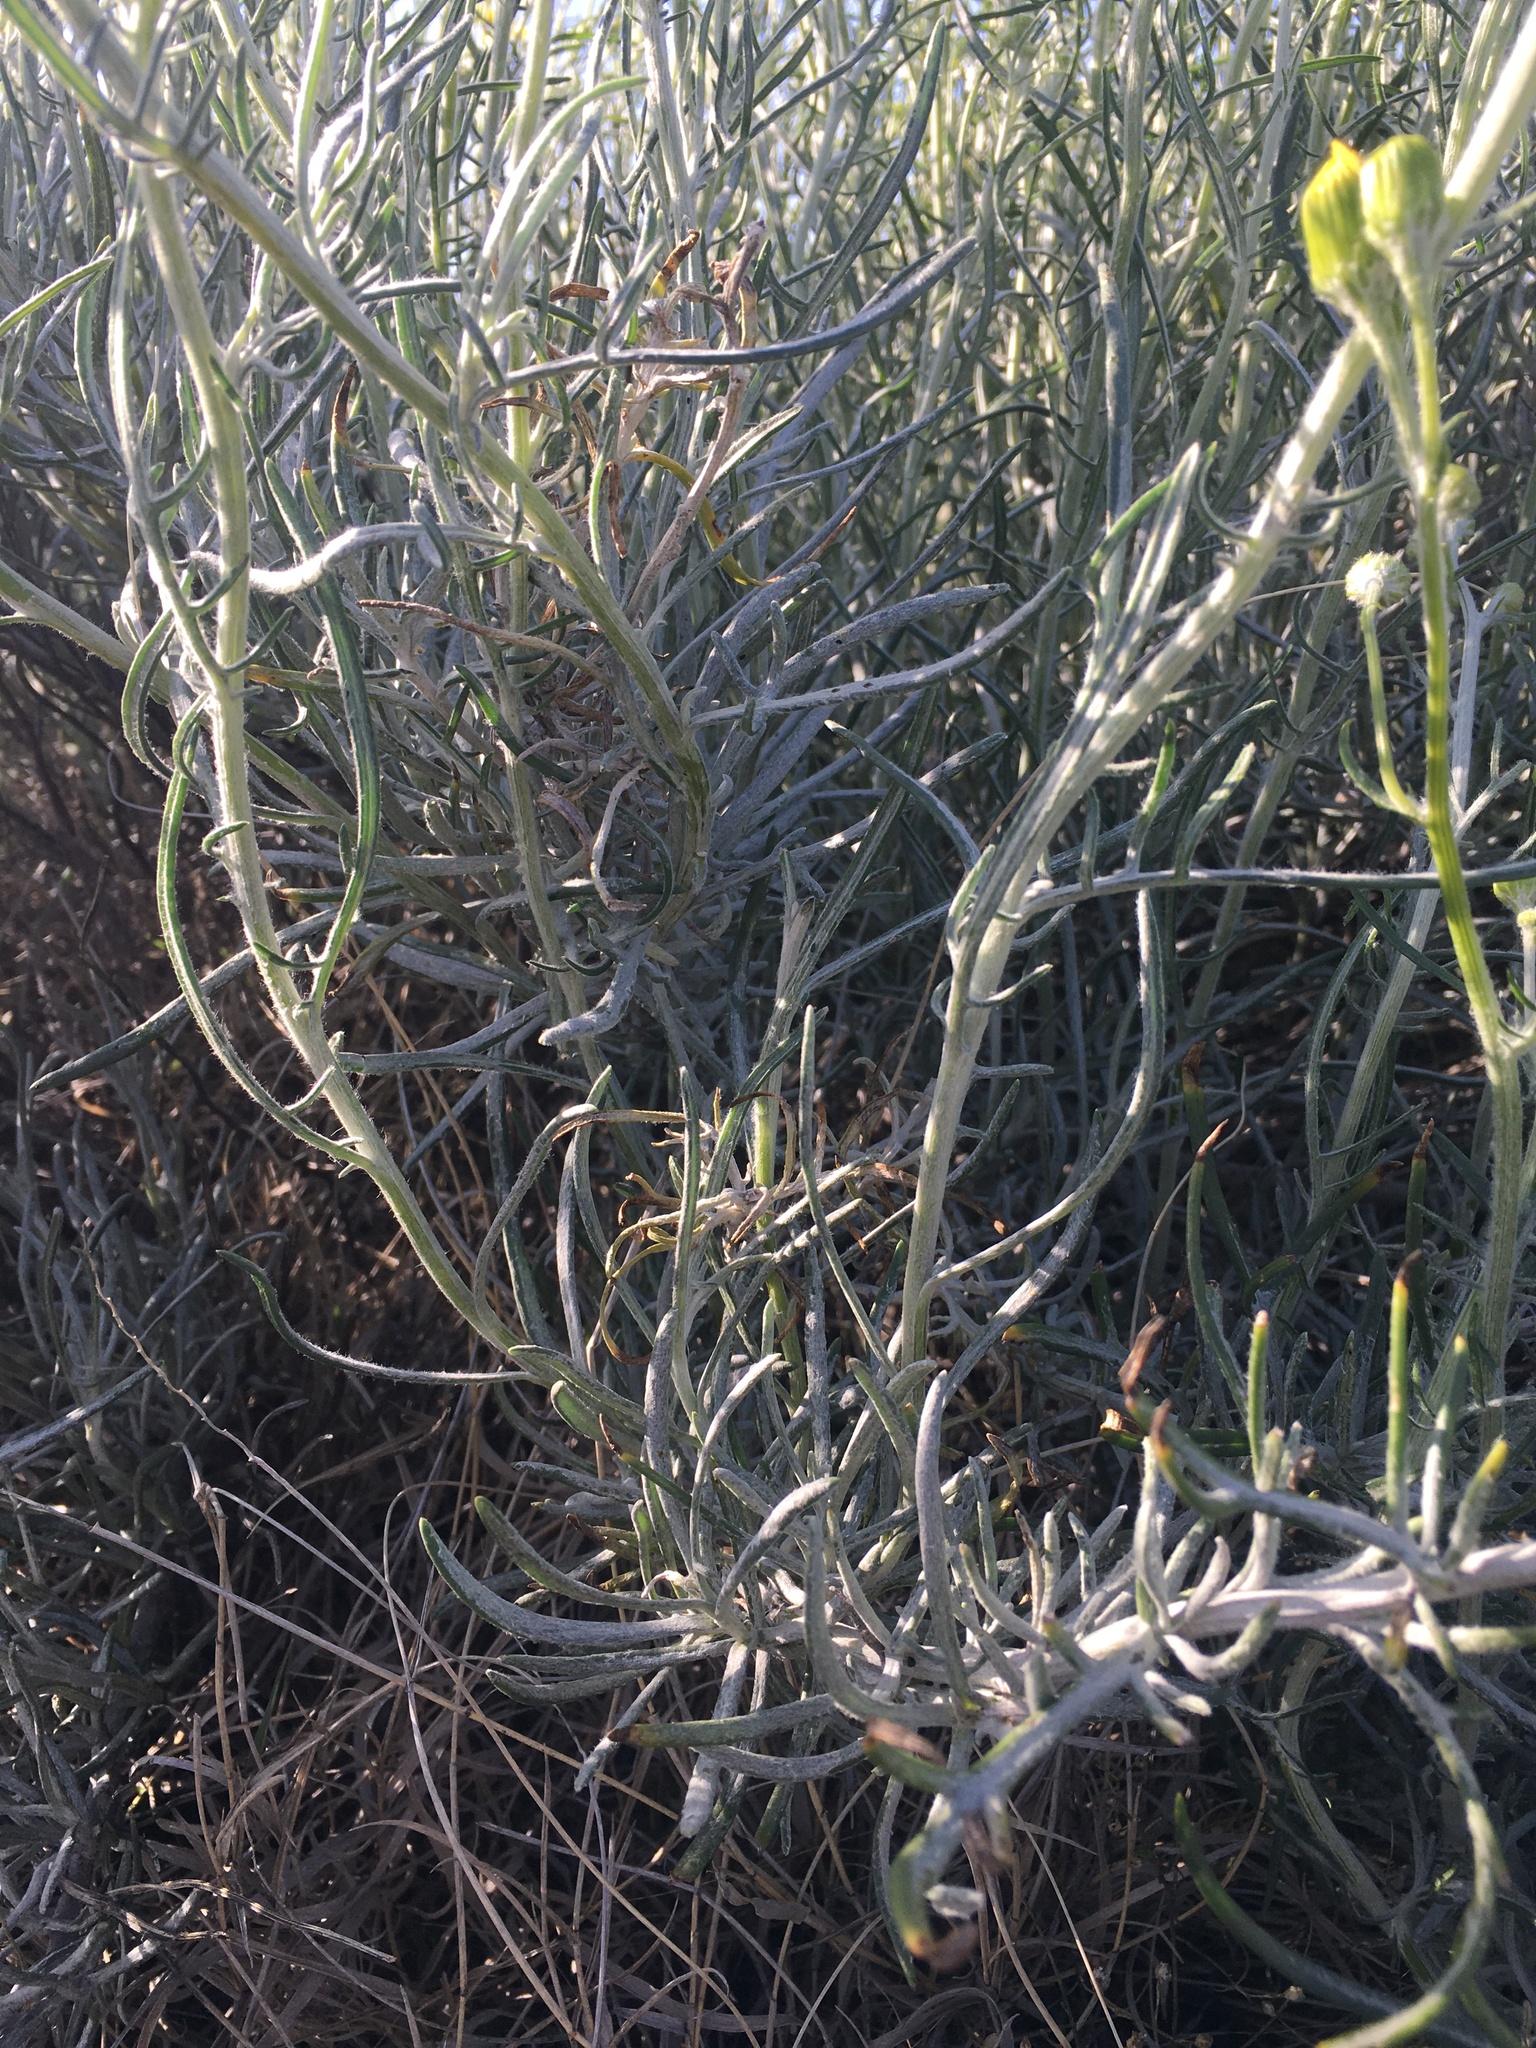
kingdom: Plantae
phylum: Tracheophyta
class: Magnoliopsida
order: Asterales
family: Asteraceae
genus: Senecio
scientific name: Senecio flaccidus
